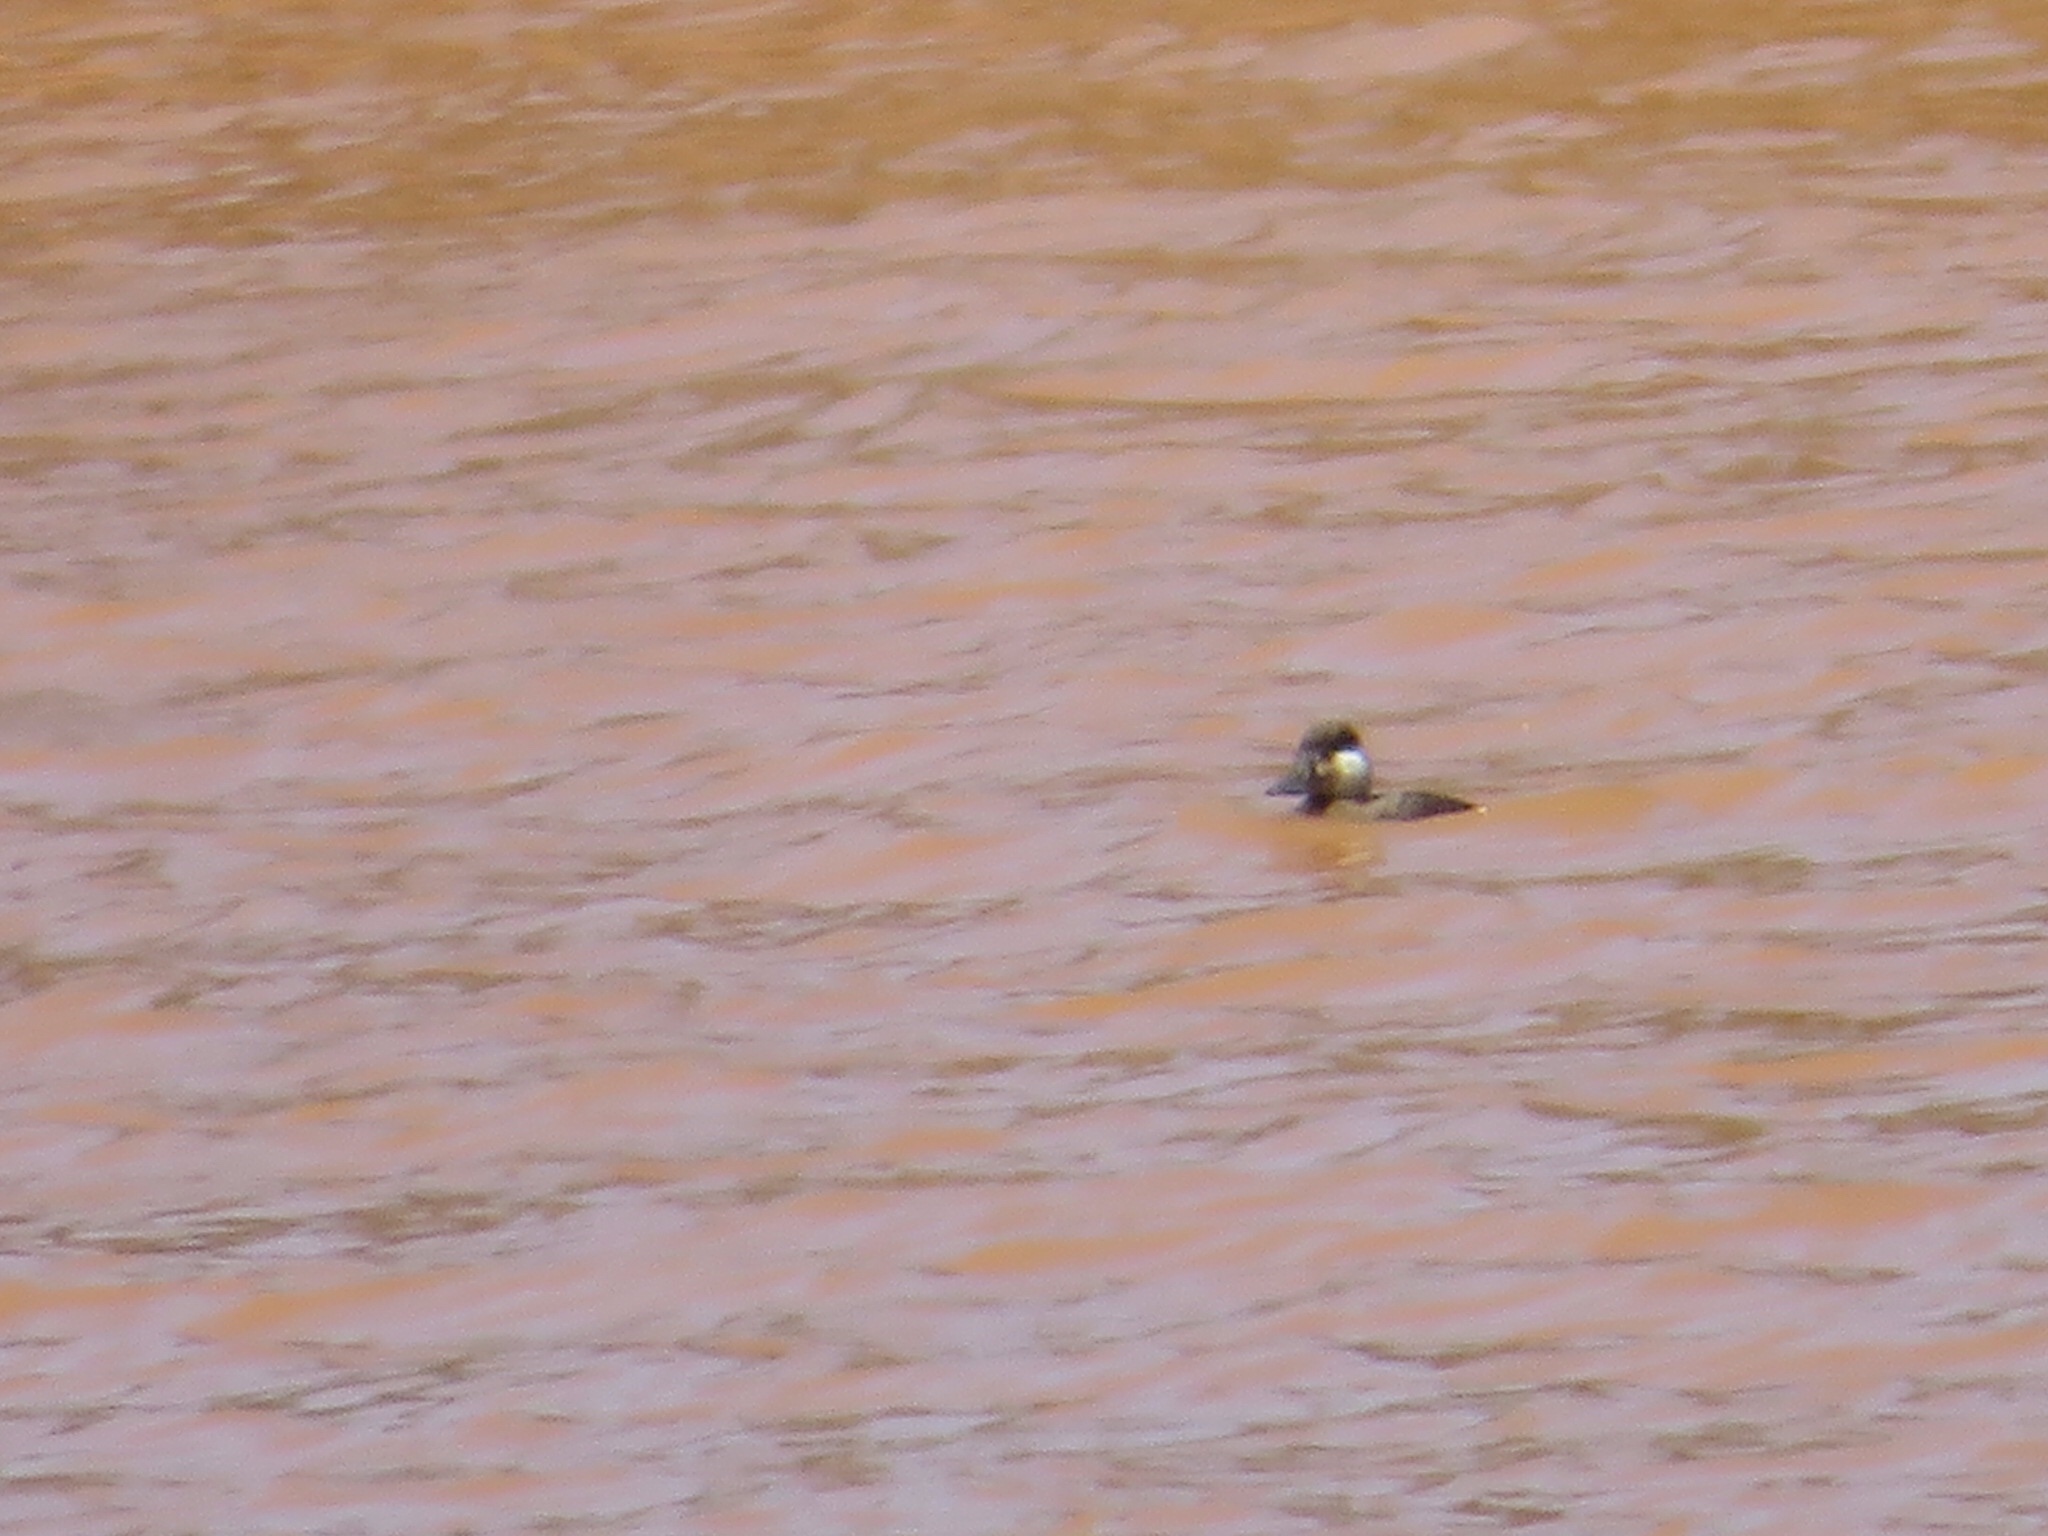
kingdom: Animalia
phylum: Chordata
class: Aves
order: Anseriformes
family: Anatidae
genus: Oxyura
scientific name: Oxyura jamaicensis
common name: Ruddy duck
